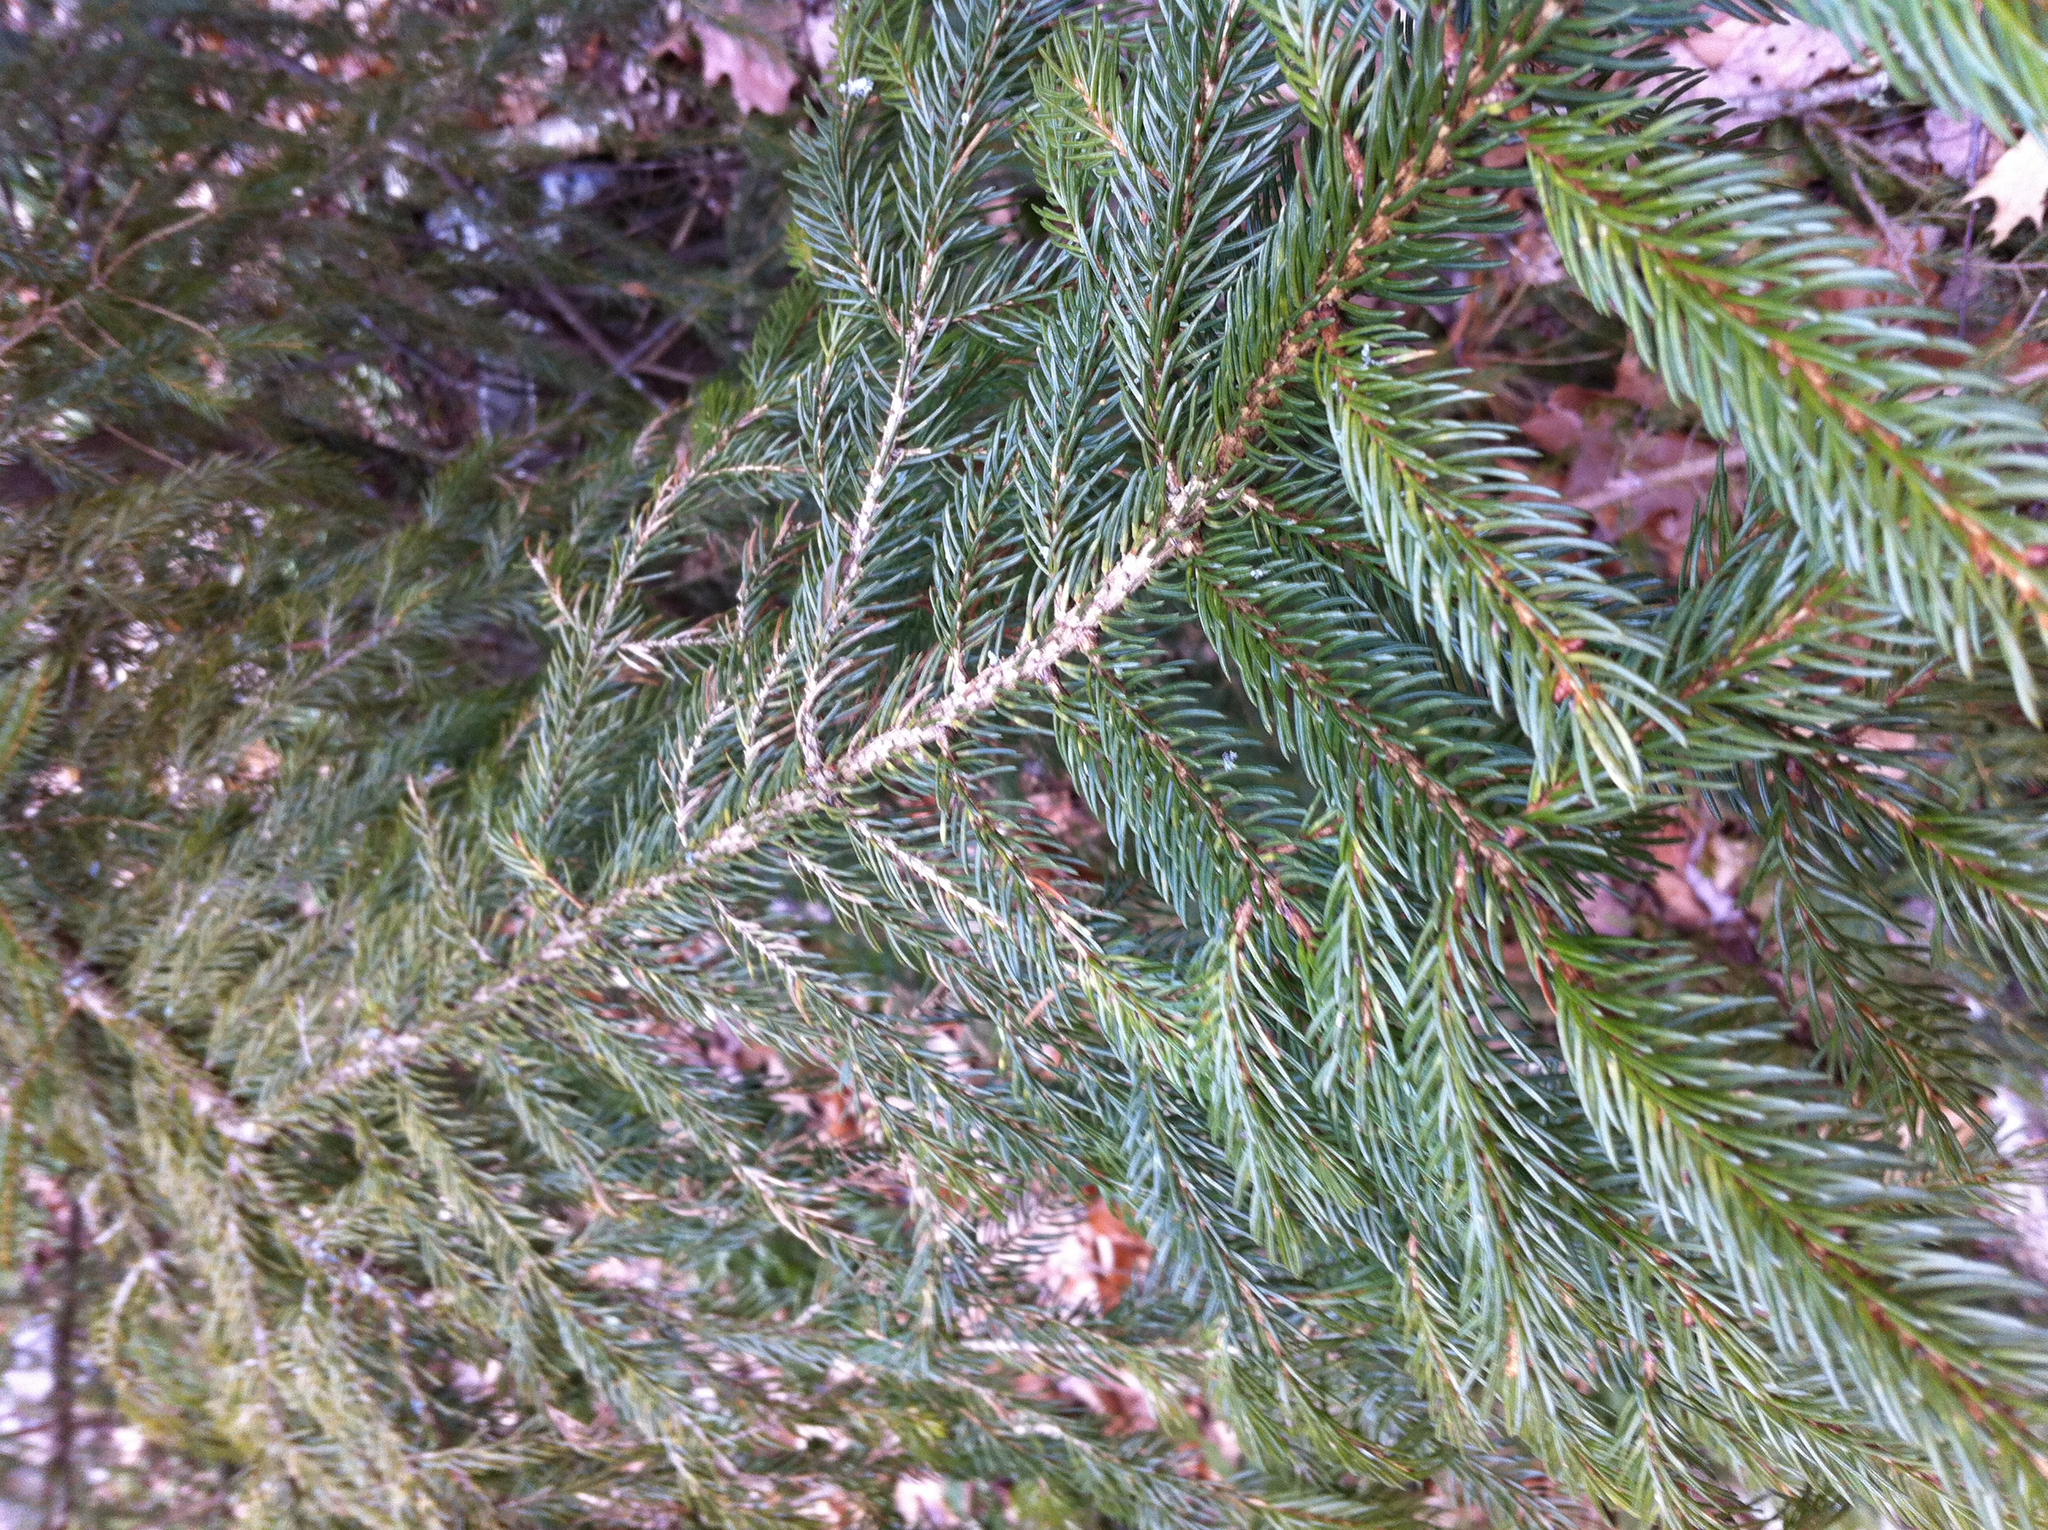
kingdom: Plantae
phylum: Tracheophyta
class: Pinopsida
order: Pinales
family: Pinaceae
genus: Picea
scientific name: Picea rubens
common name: Red spruce
